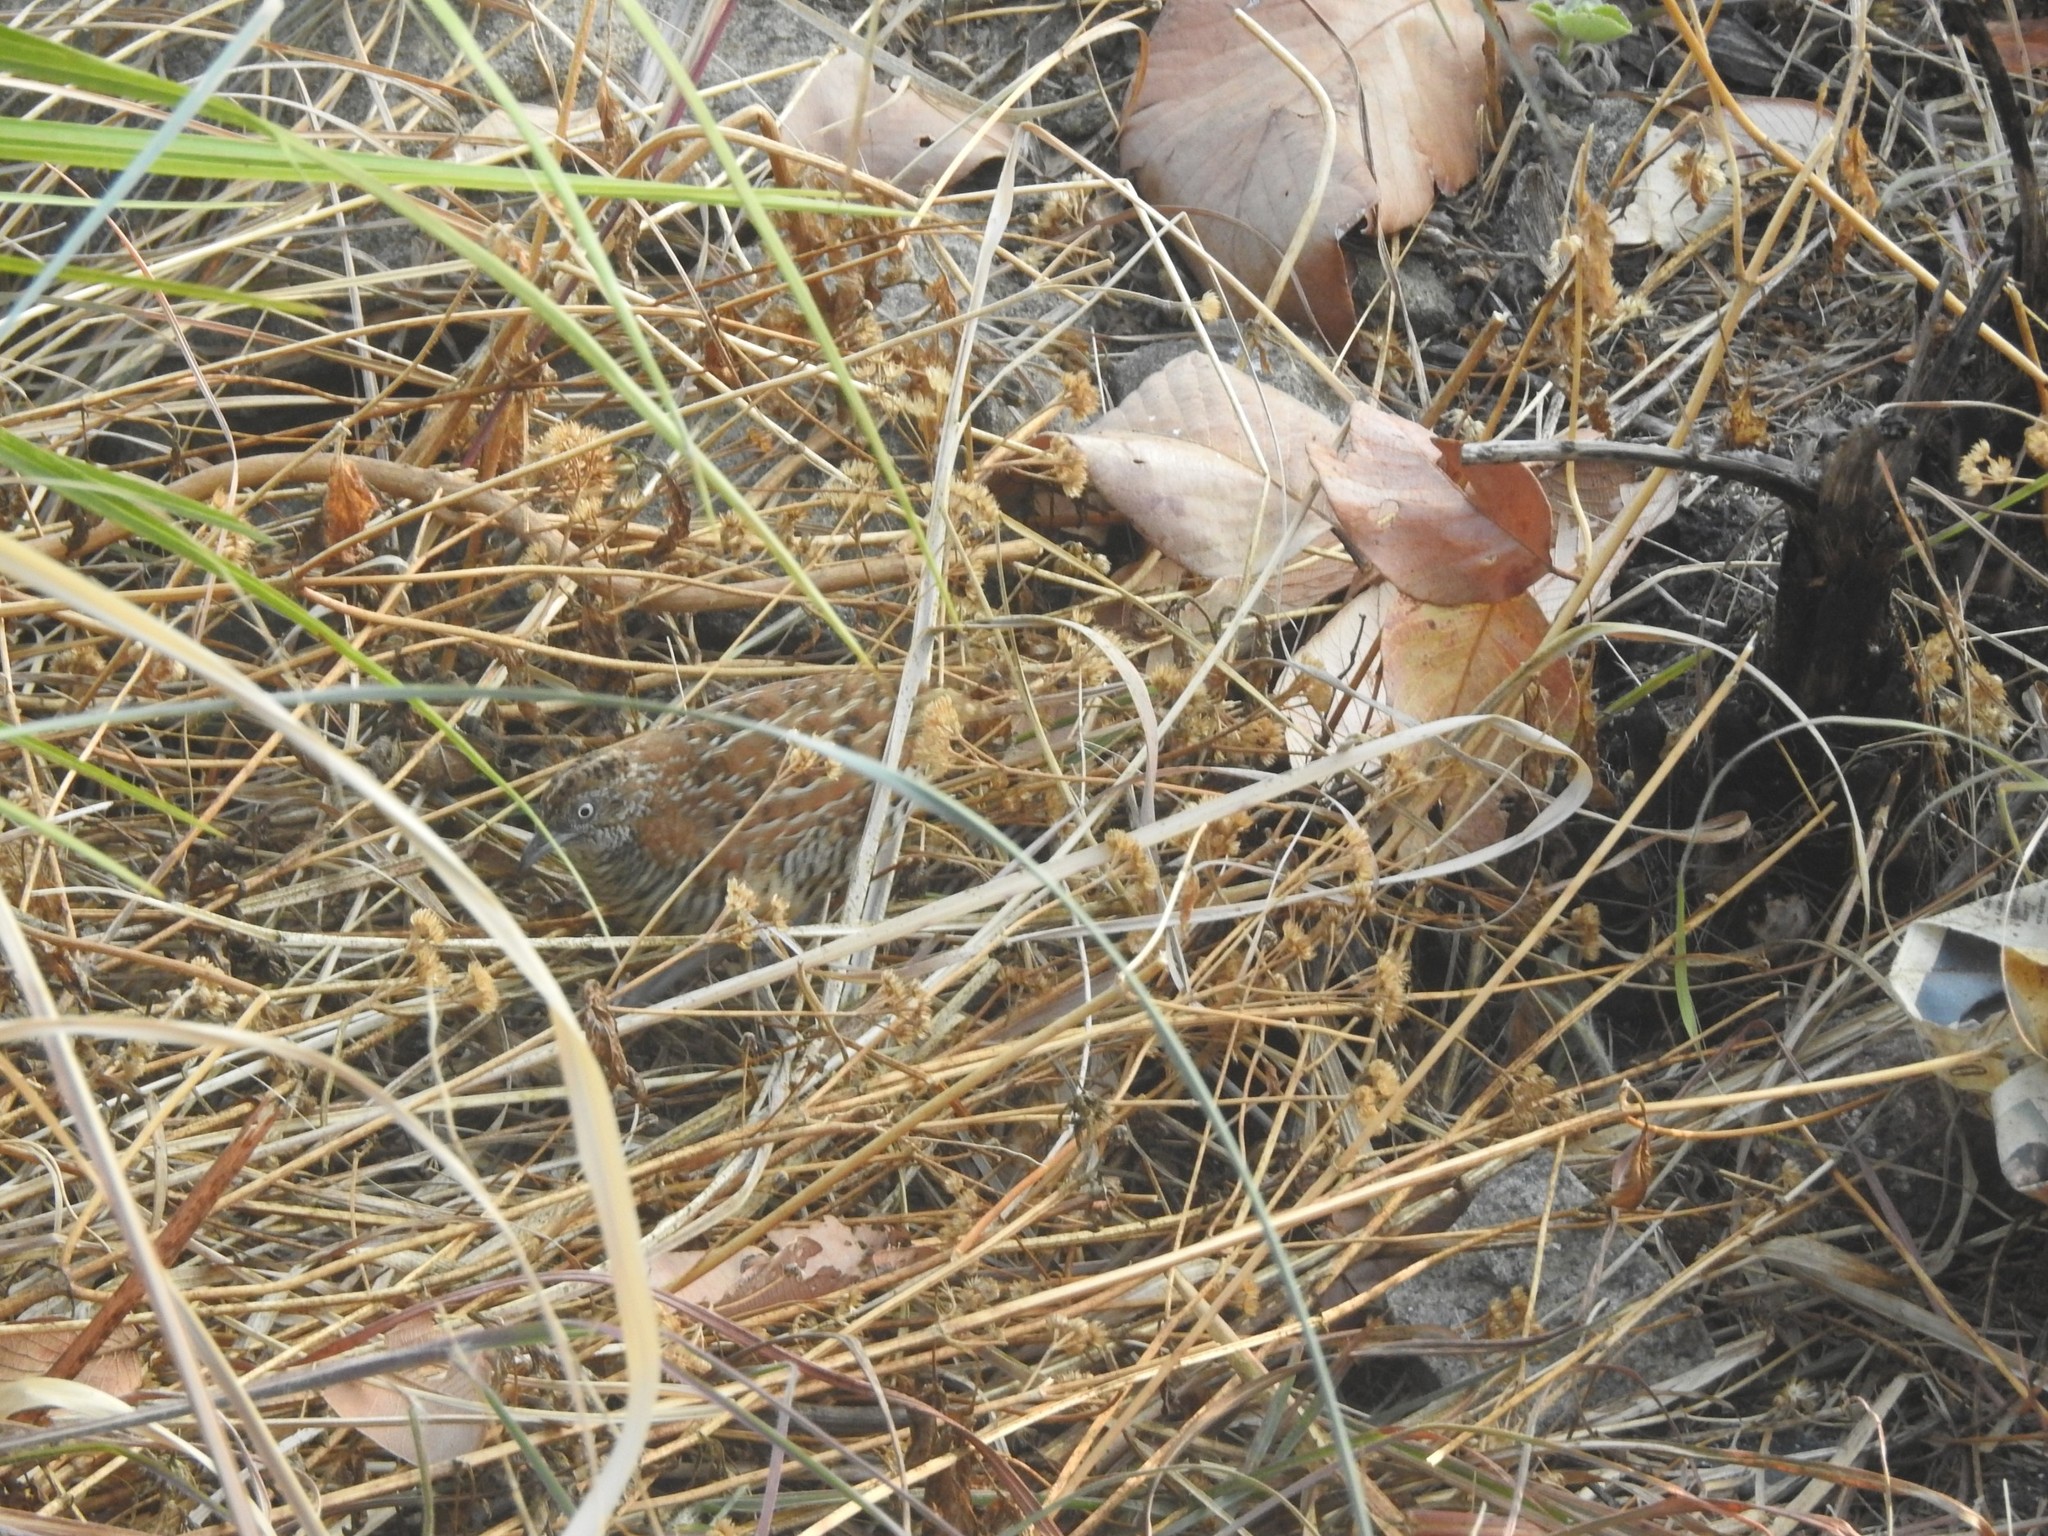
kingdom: Animalia
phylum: Chordata
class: Aves
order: Charadriiformes
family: Turnicidae
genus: Turnix
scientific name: Turnix suscitator
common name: Barred buttonquail
